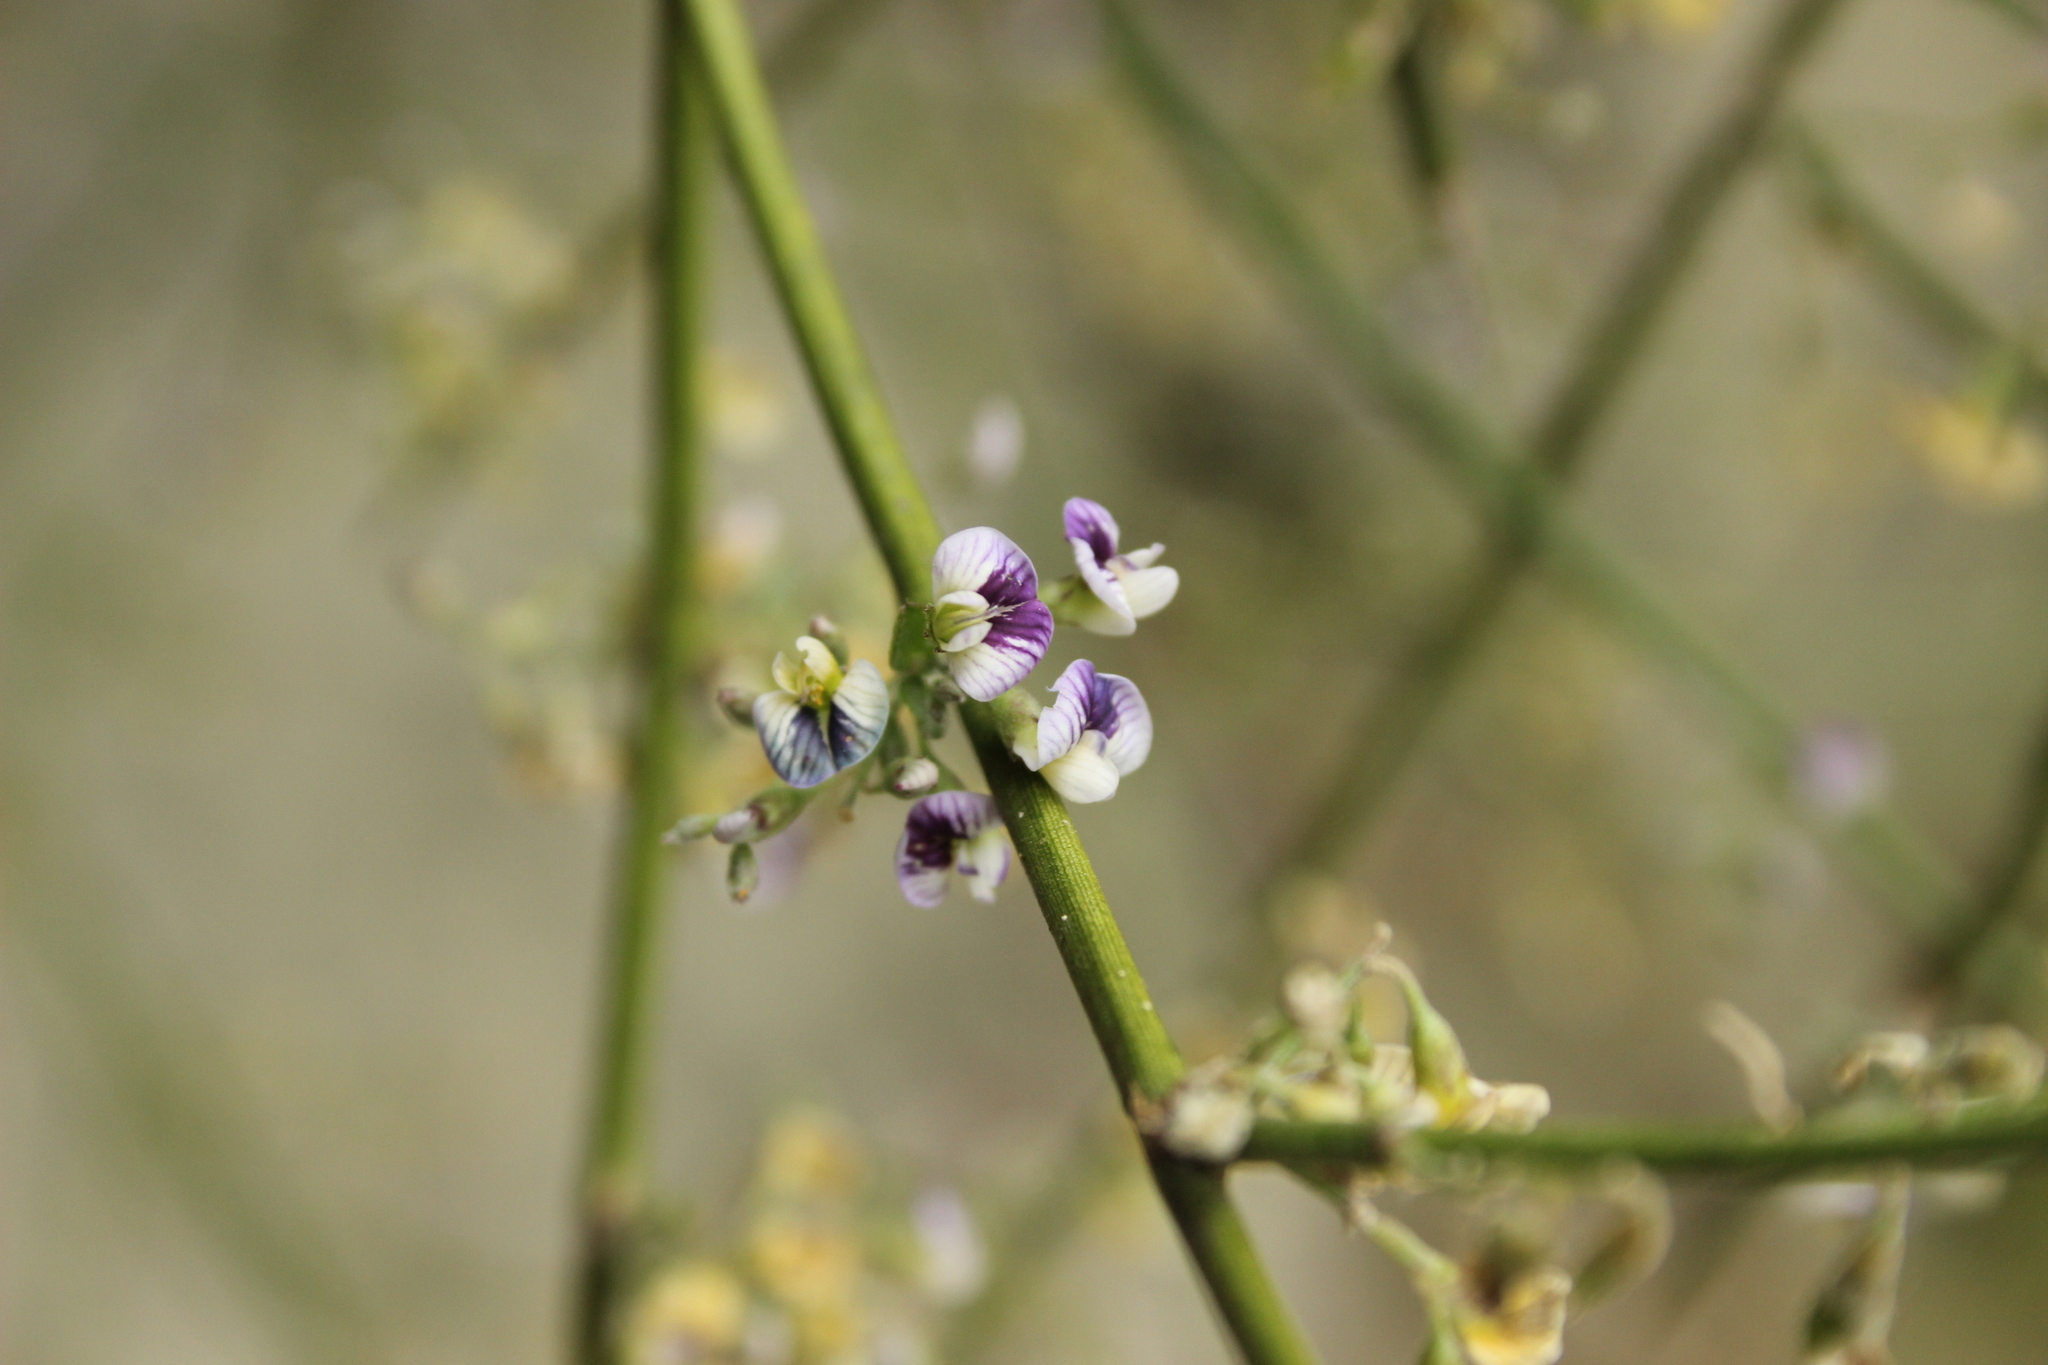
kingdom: Plantae
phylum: Tracheophyta
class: Magnoliopsida
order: Fabales
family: Fabaceae
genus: Carmichaelia
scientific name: Carmichaelia petriei
